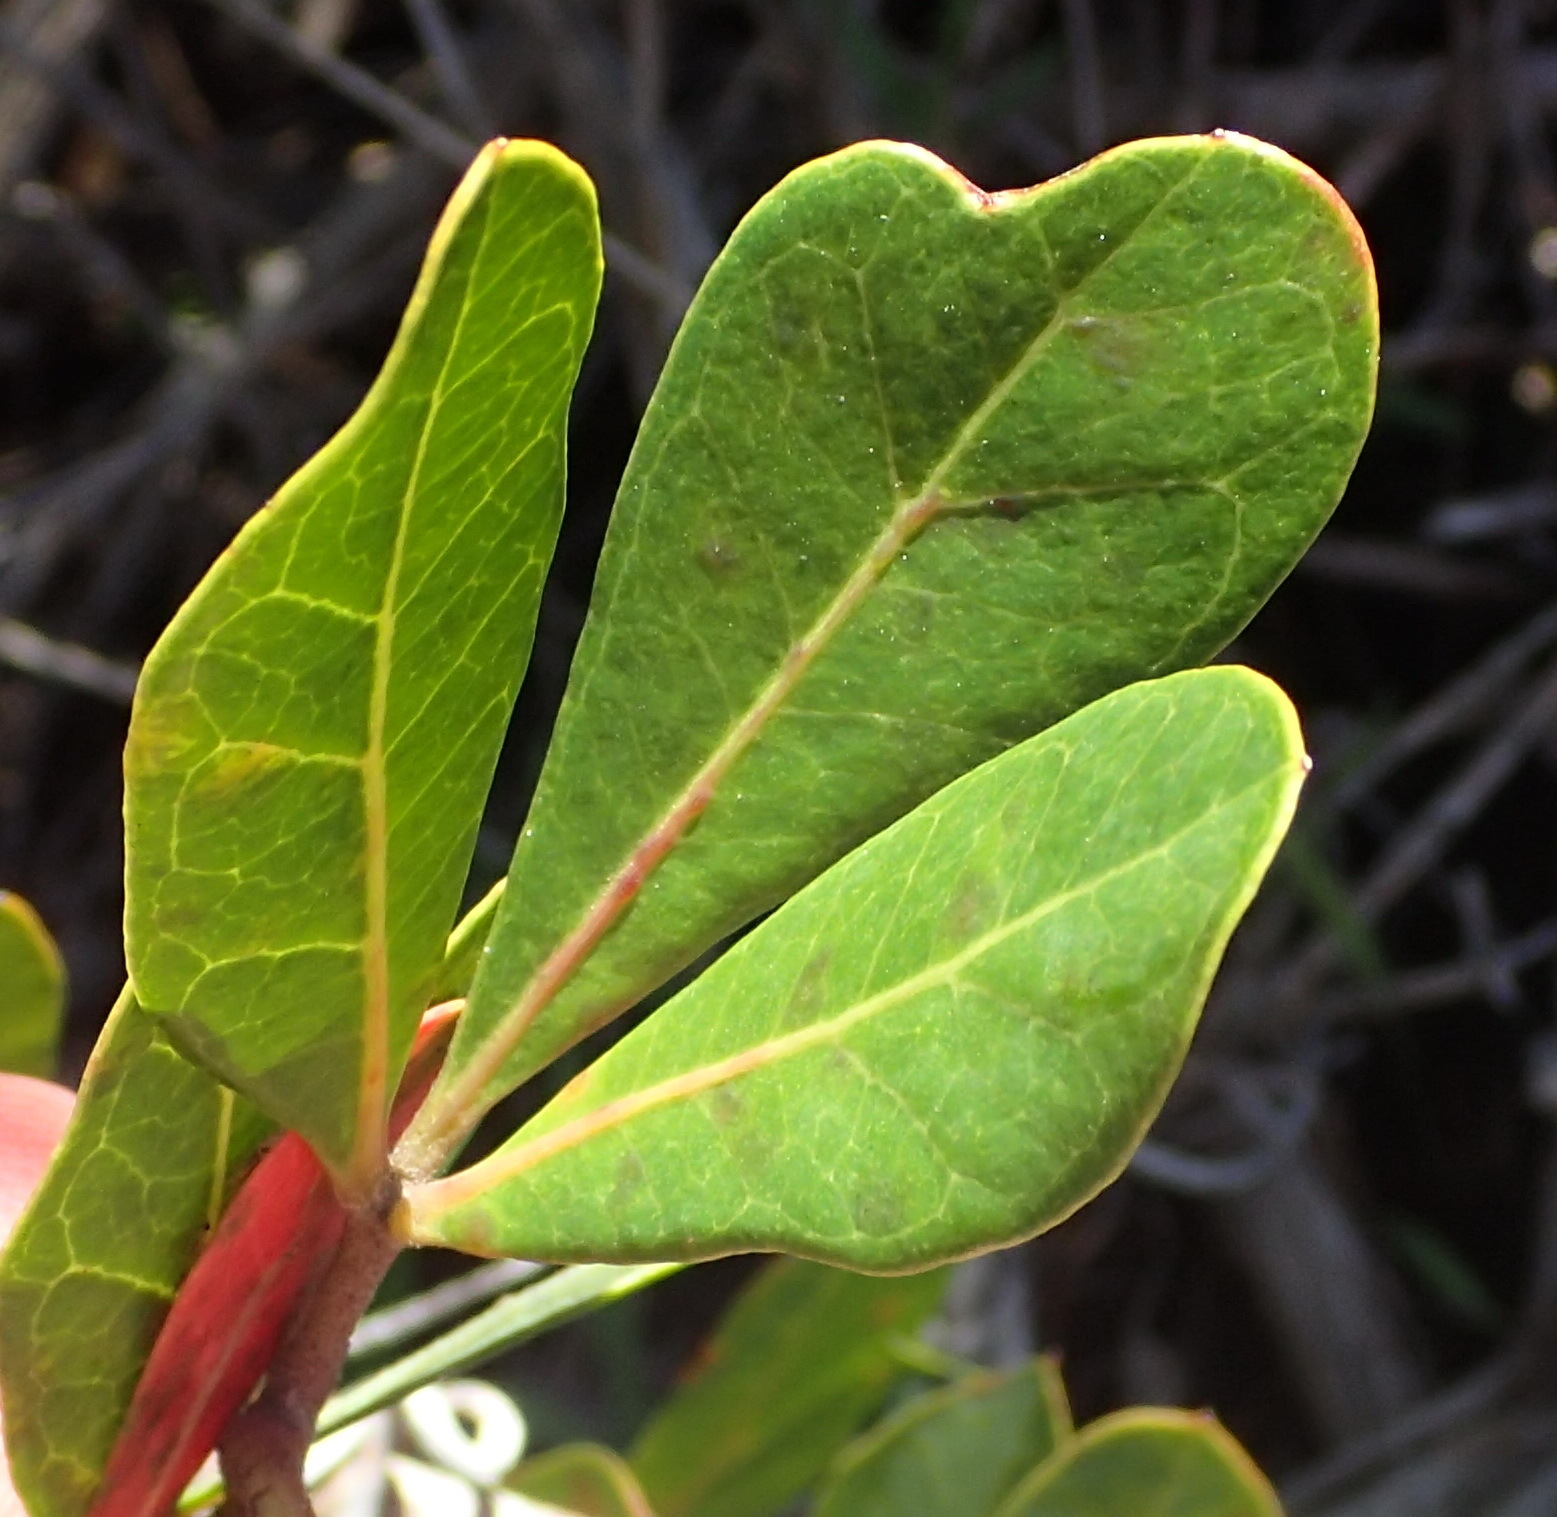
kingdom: Plantae
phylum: Tracheophyta
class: Magnoliopsida
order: Vitales
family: Vitaceae
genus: Rhoicissus
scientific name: Rhoicissus digitata
